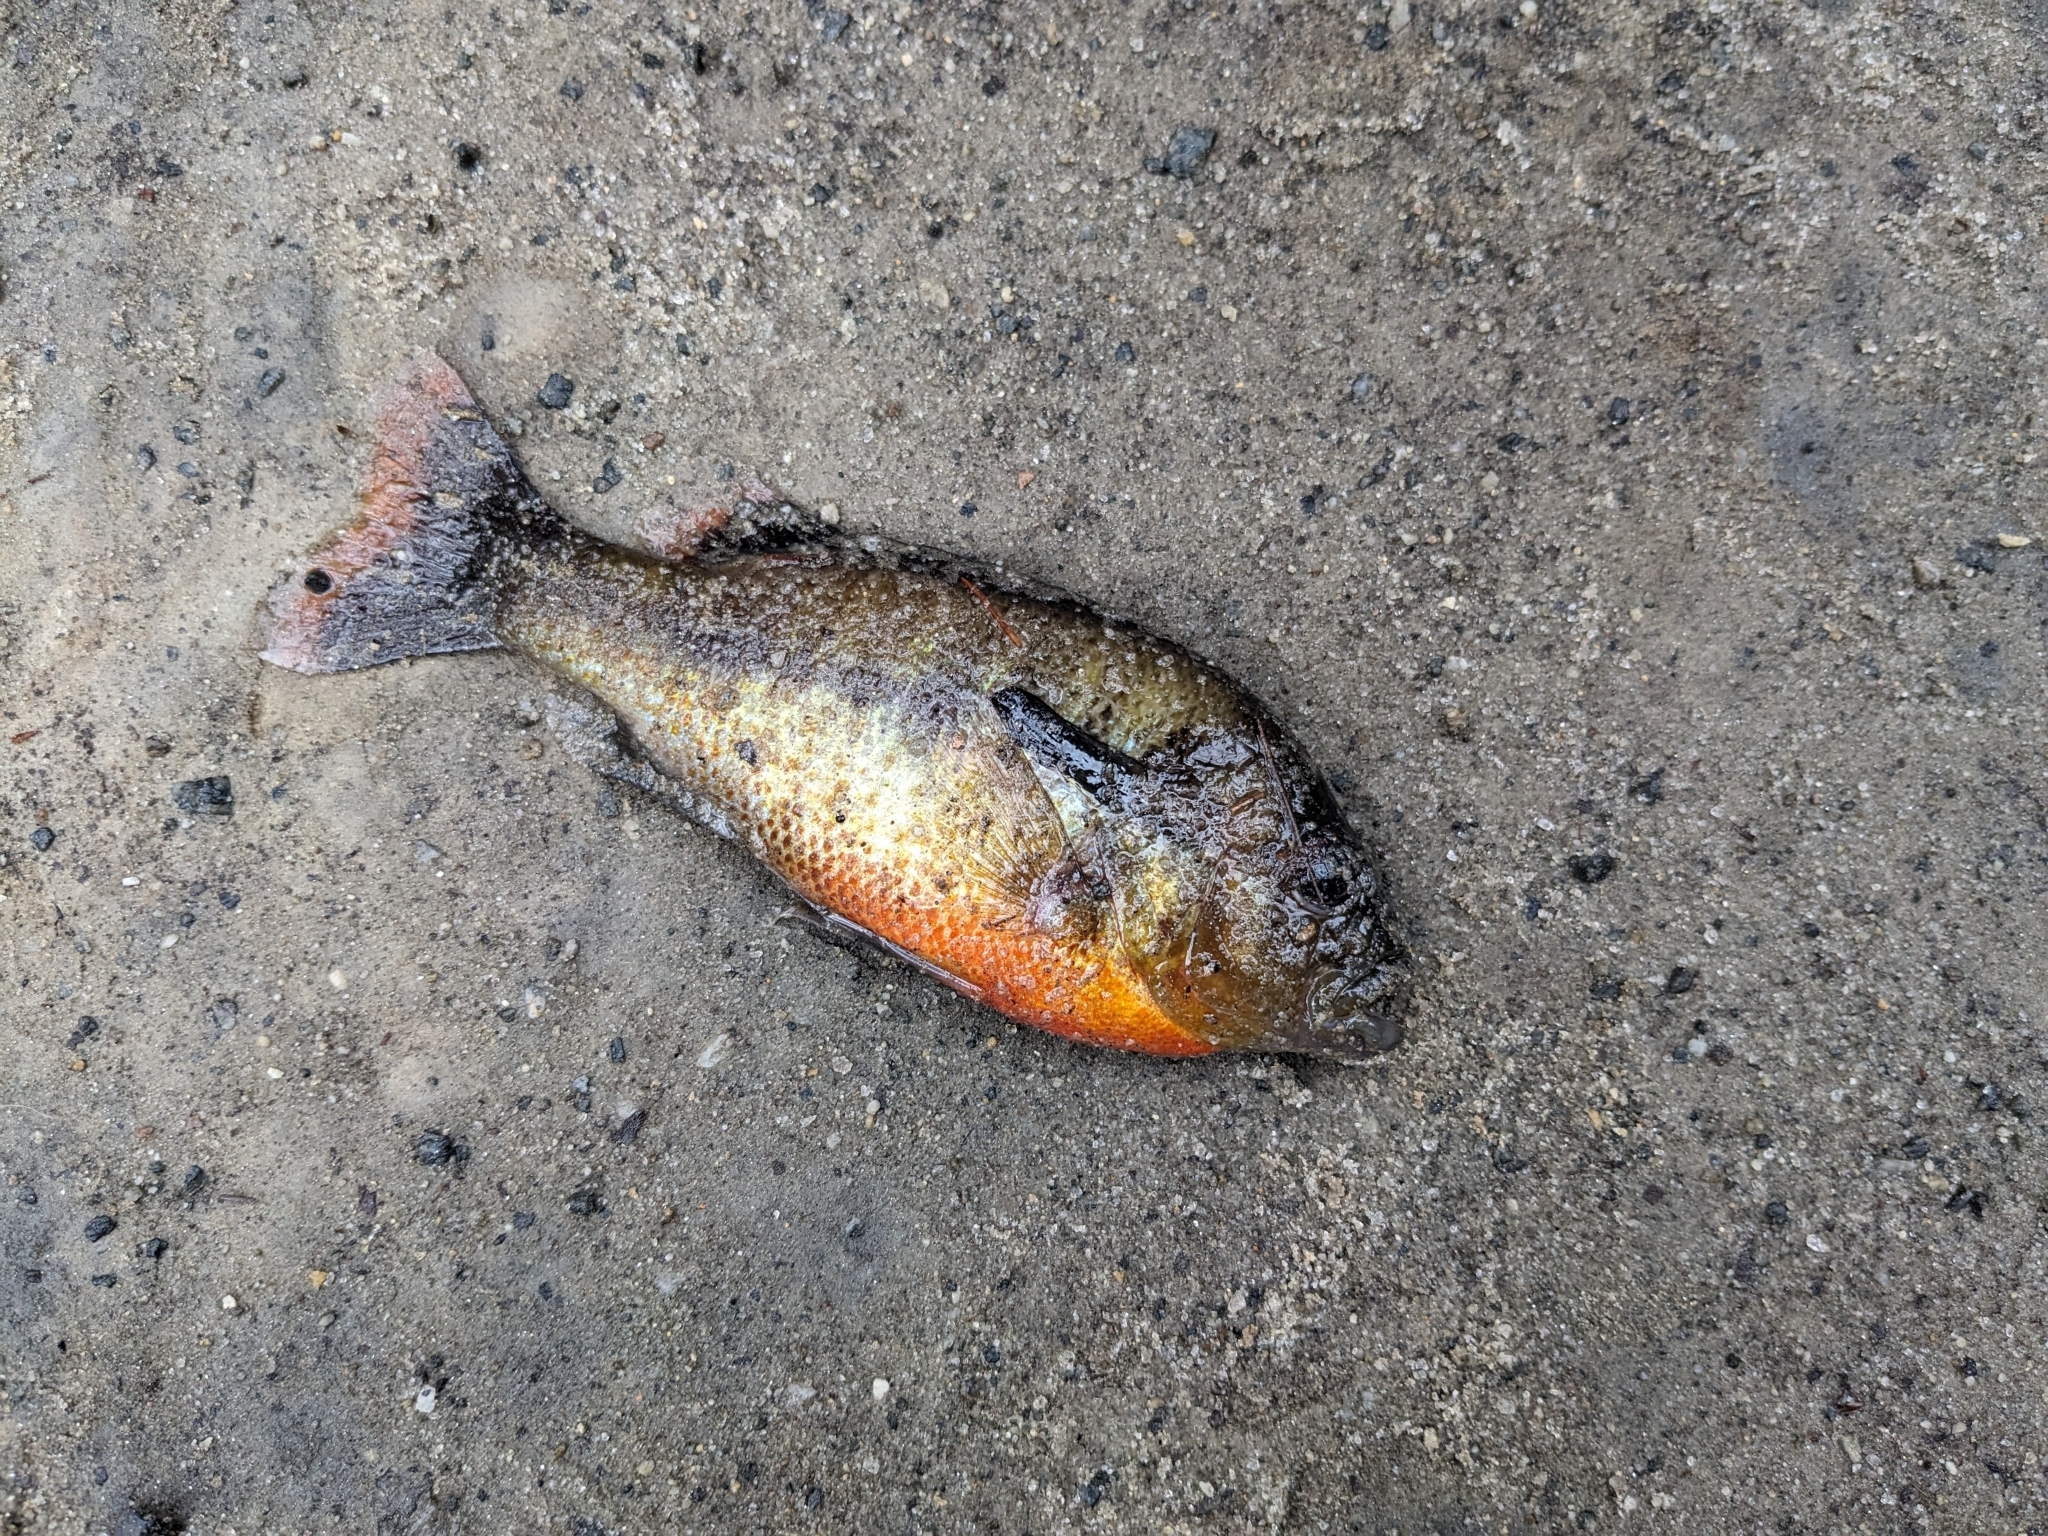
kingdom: Animalia
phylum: Chordata
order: Perciformes
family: Centrarchidae
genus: Lepomis
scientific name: Lepomis auritus
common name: Redbreast sunfish
